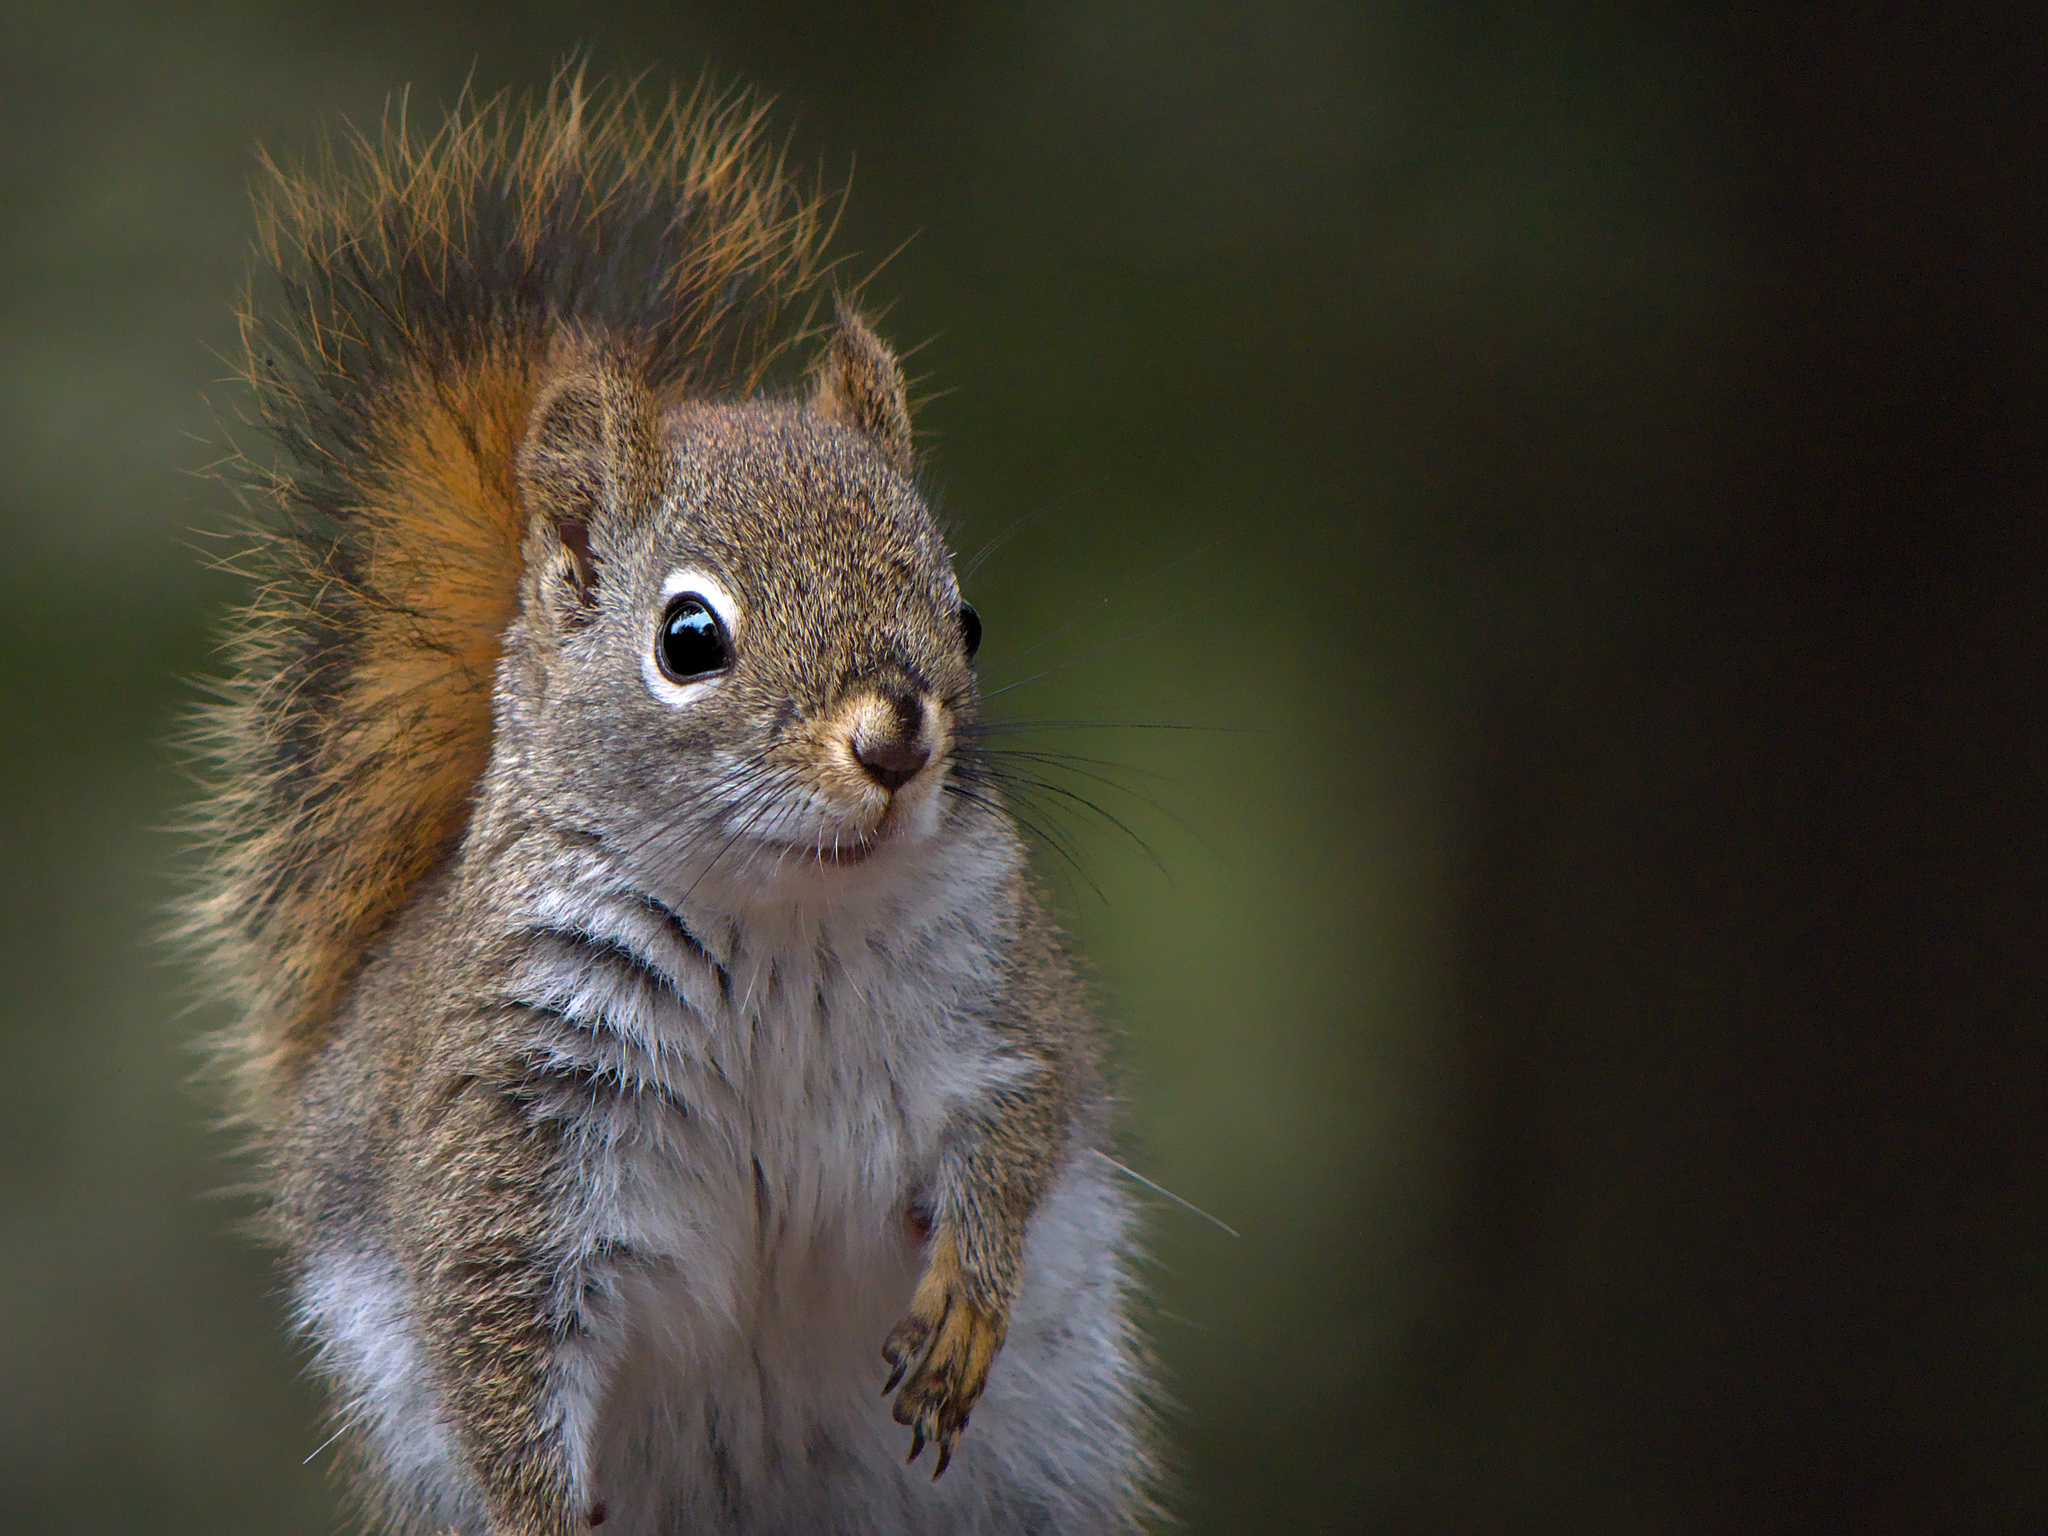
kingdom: Animalia
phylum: Chordata
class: Mammalia
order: Rodentia
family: Sciuridae
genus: Tamiasciurus
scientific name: Tamiasciurus hudsonicus
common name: Red squirrel
